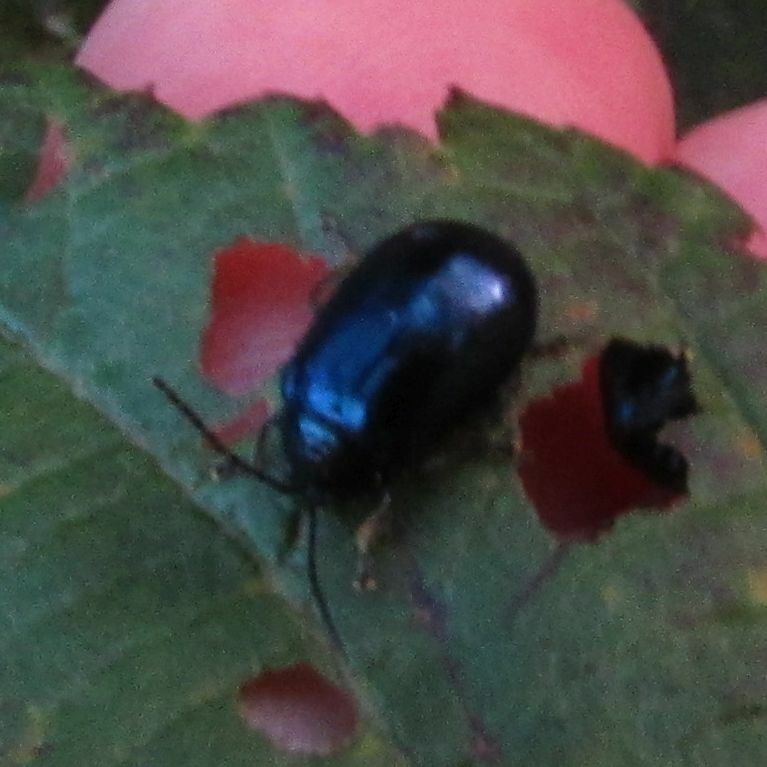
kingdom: Animalia
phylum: Arthropoda
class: Insecta
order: Coleoptera
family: Chrysomelidae
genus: Agelastica
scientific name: Agelastica alni
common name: Alder leaf beetle
